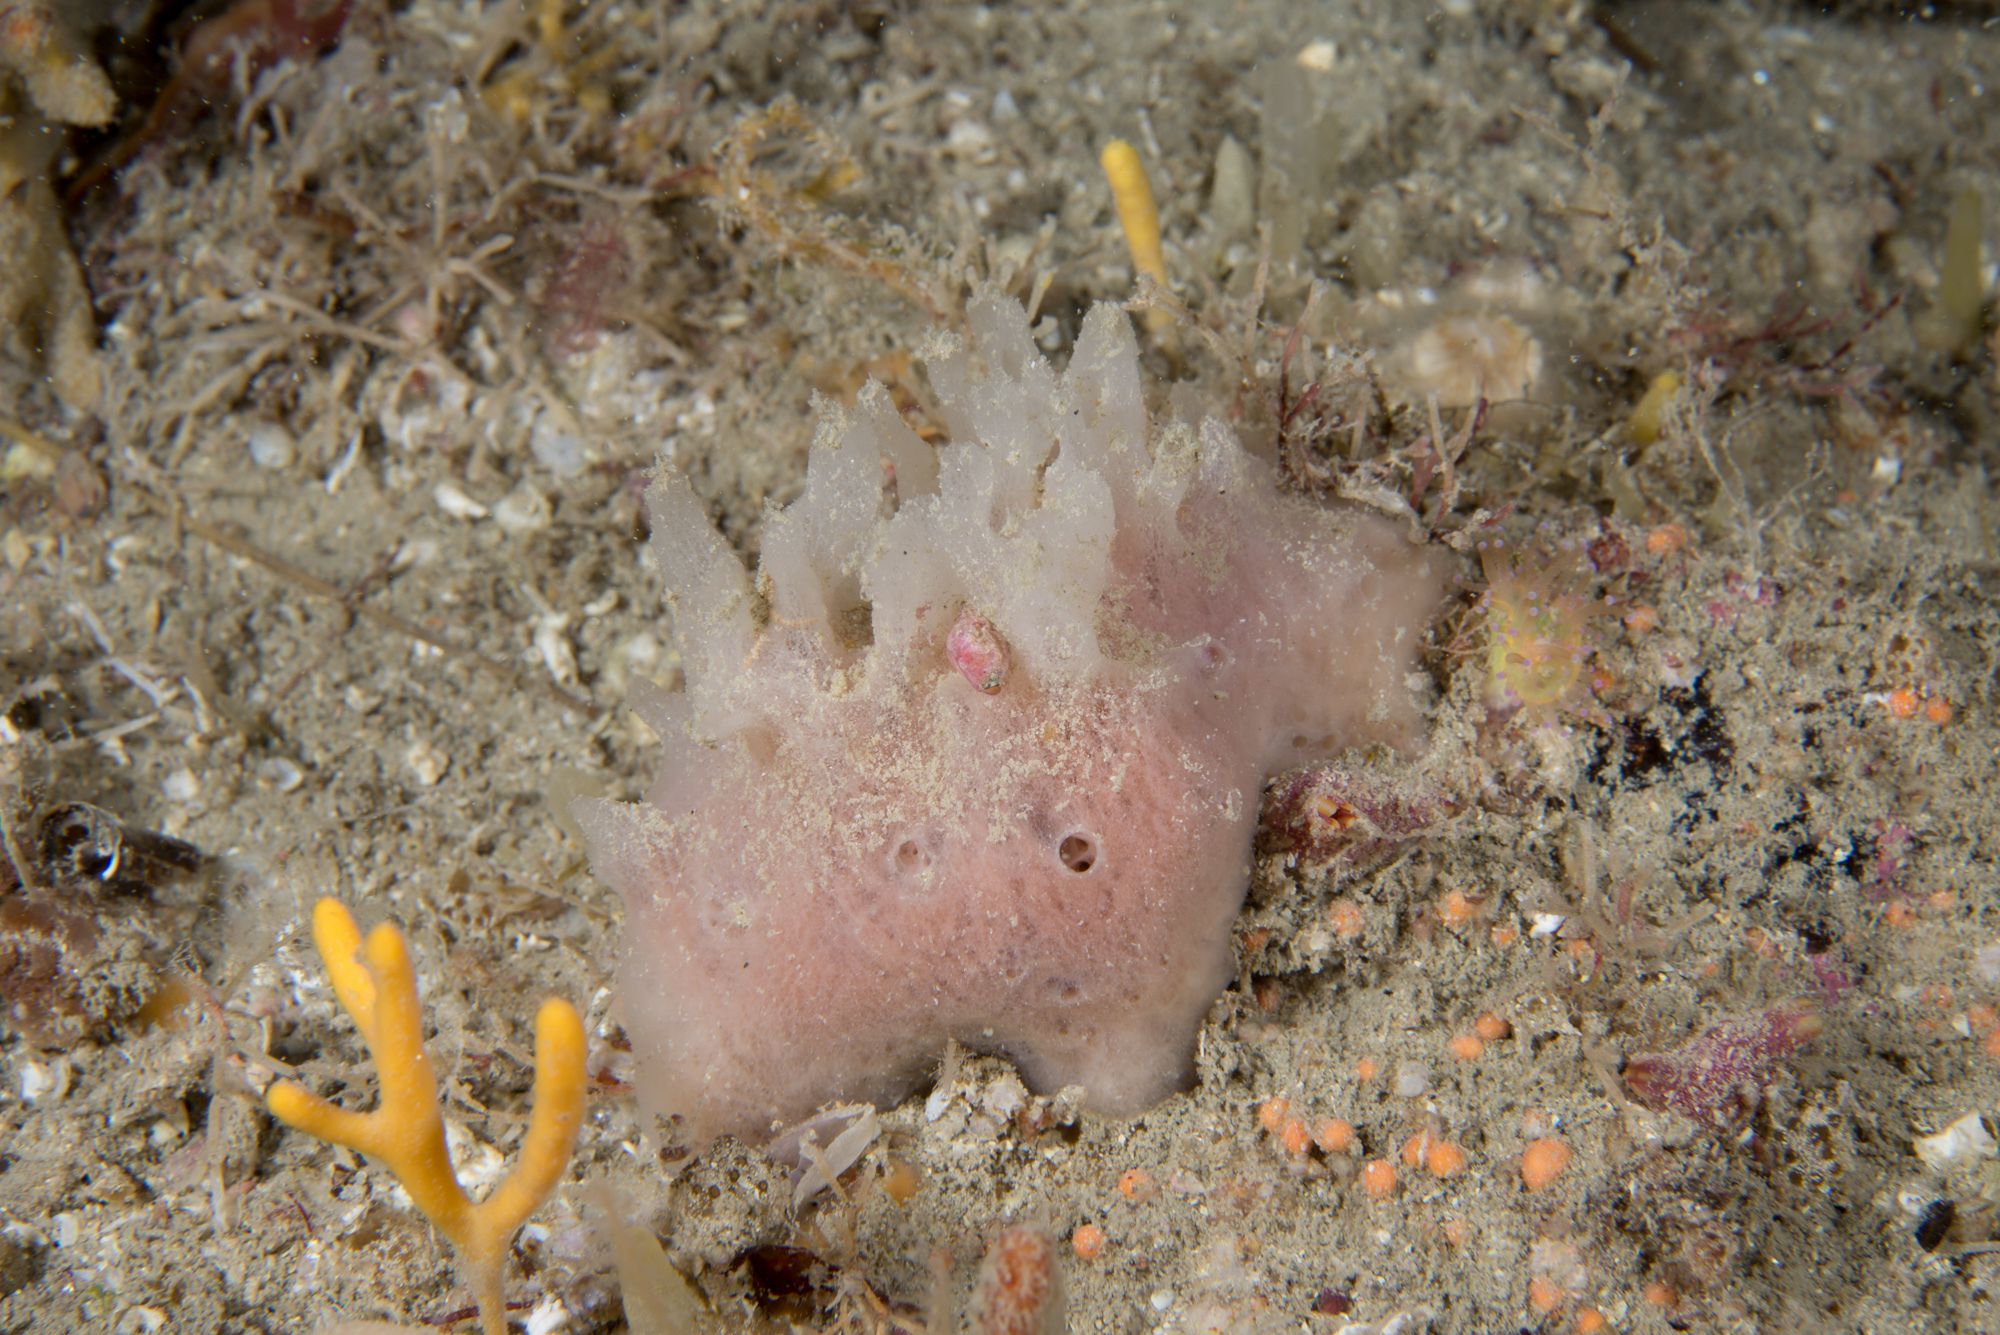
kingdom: Animalia
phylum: Porifera
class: Demospongiae
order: Haplosclerida
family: Chalinidae
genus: Haliclona
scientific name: Haliclona angulata
